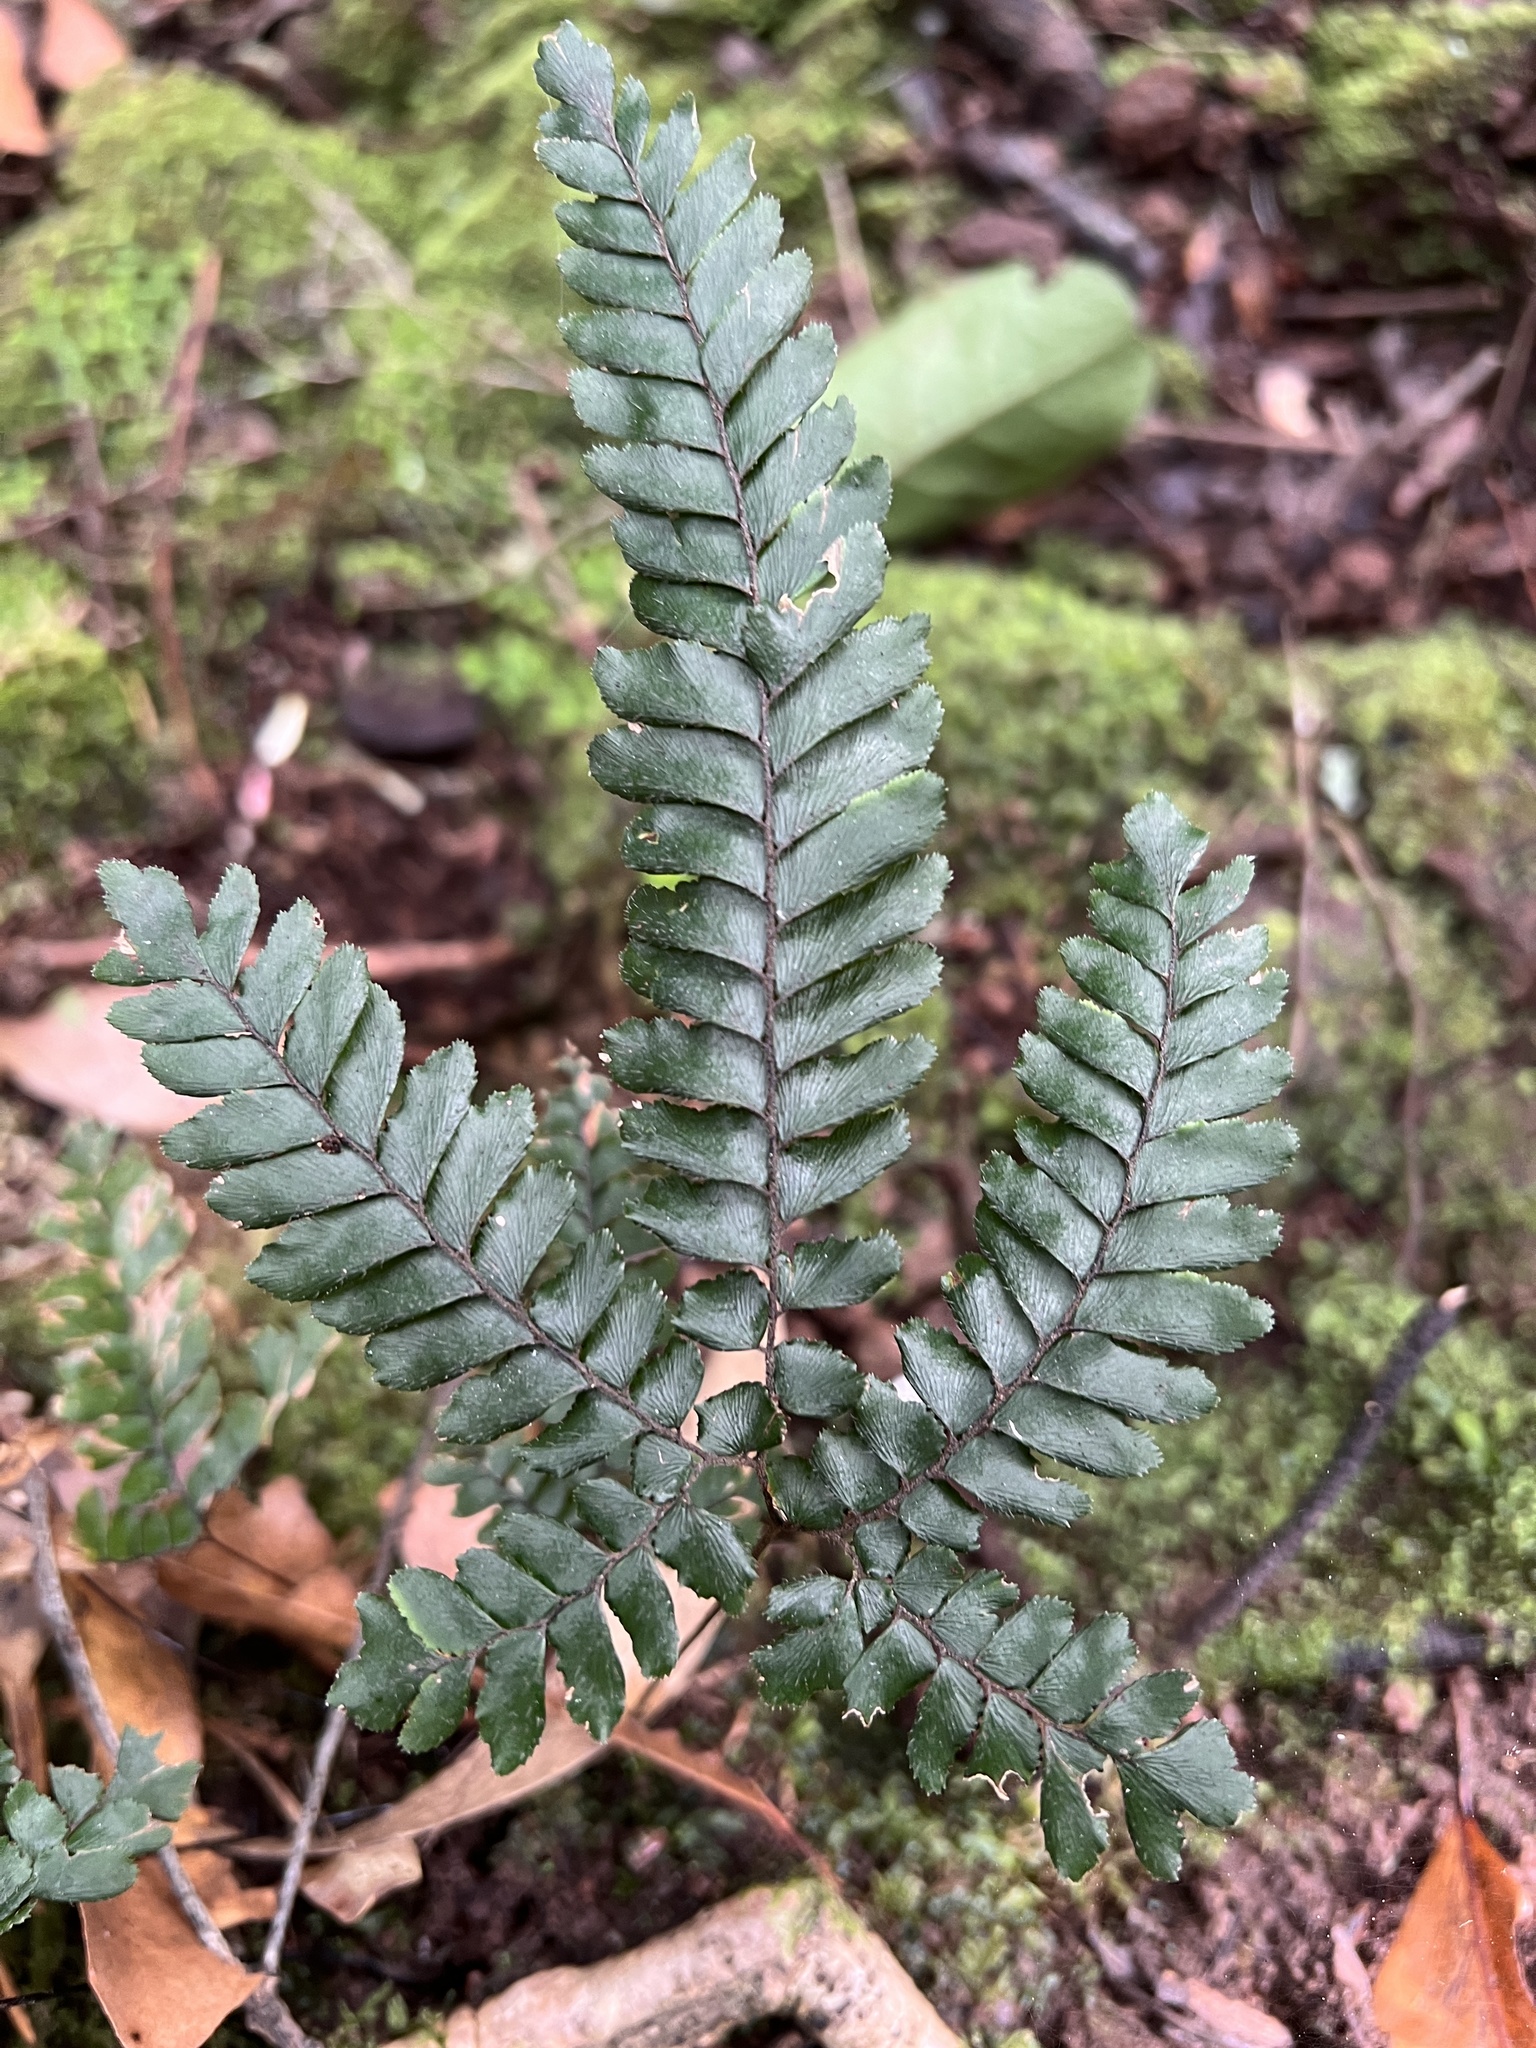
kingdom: Plantae
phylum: Tracheophyta
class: Polypodiopsida
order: Polypodiales
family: Pteridaceae
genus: Adiantum
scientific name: Adiantum hispidulum
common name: Rough maidenhair
